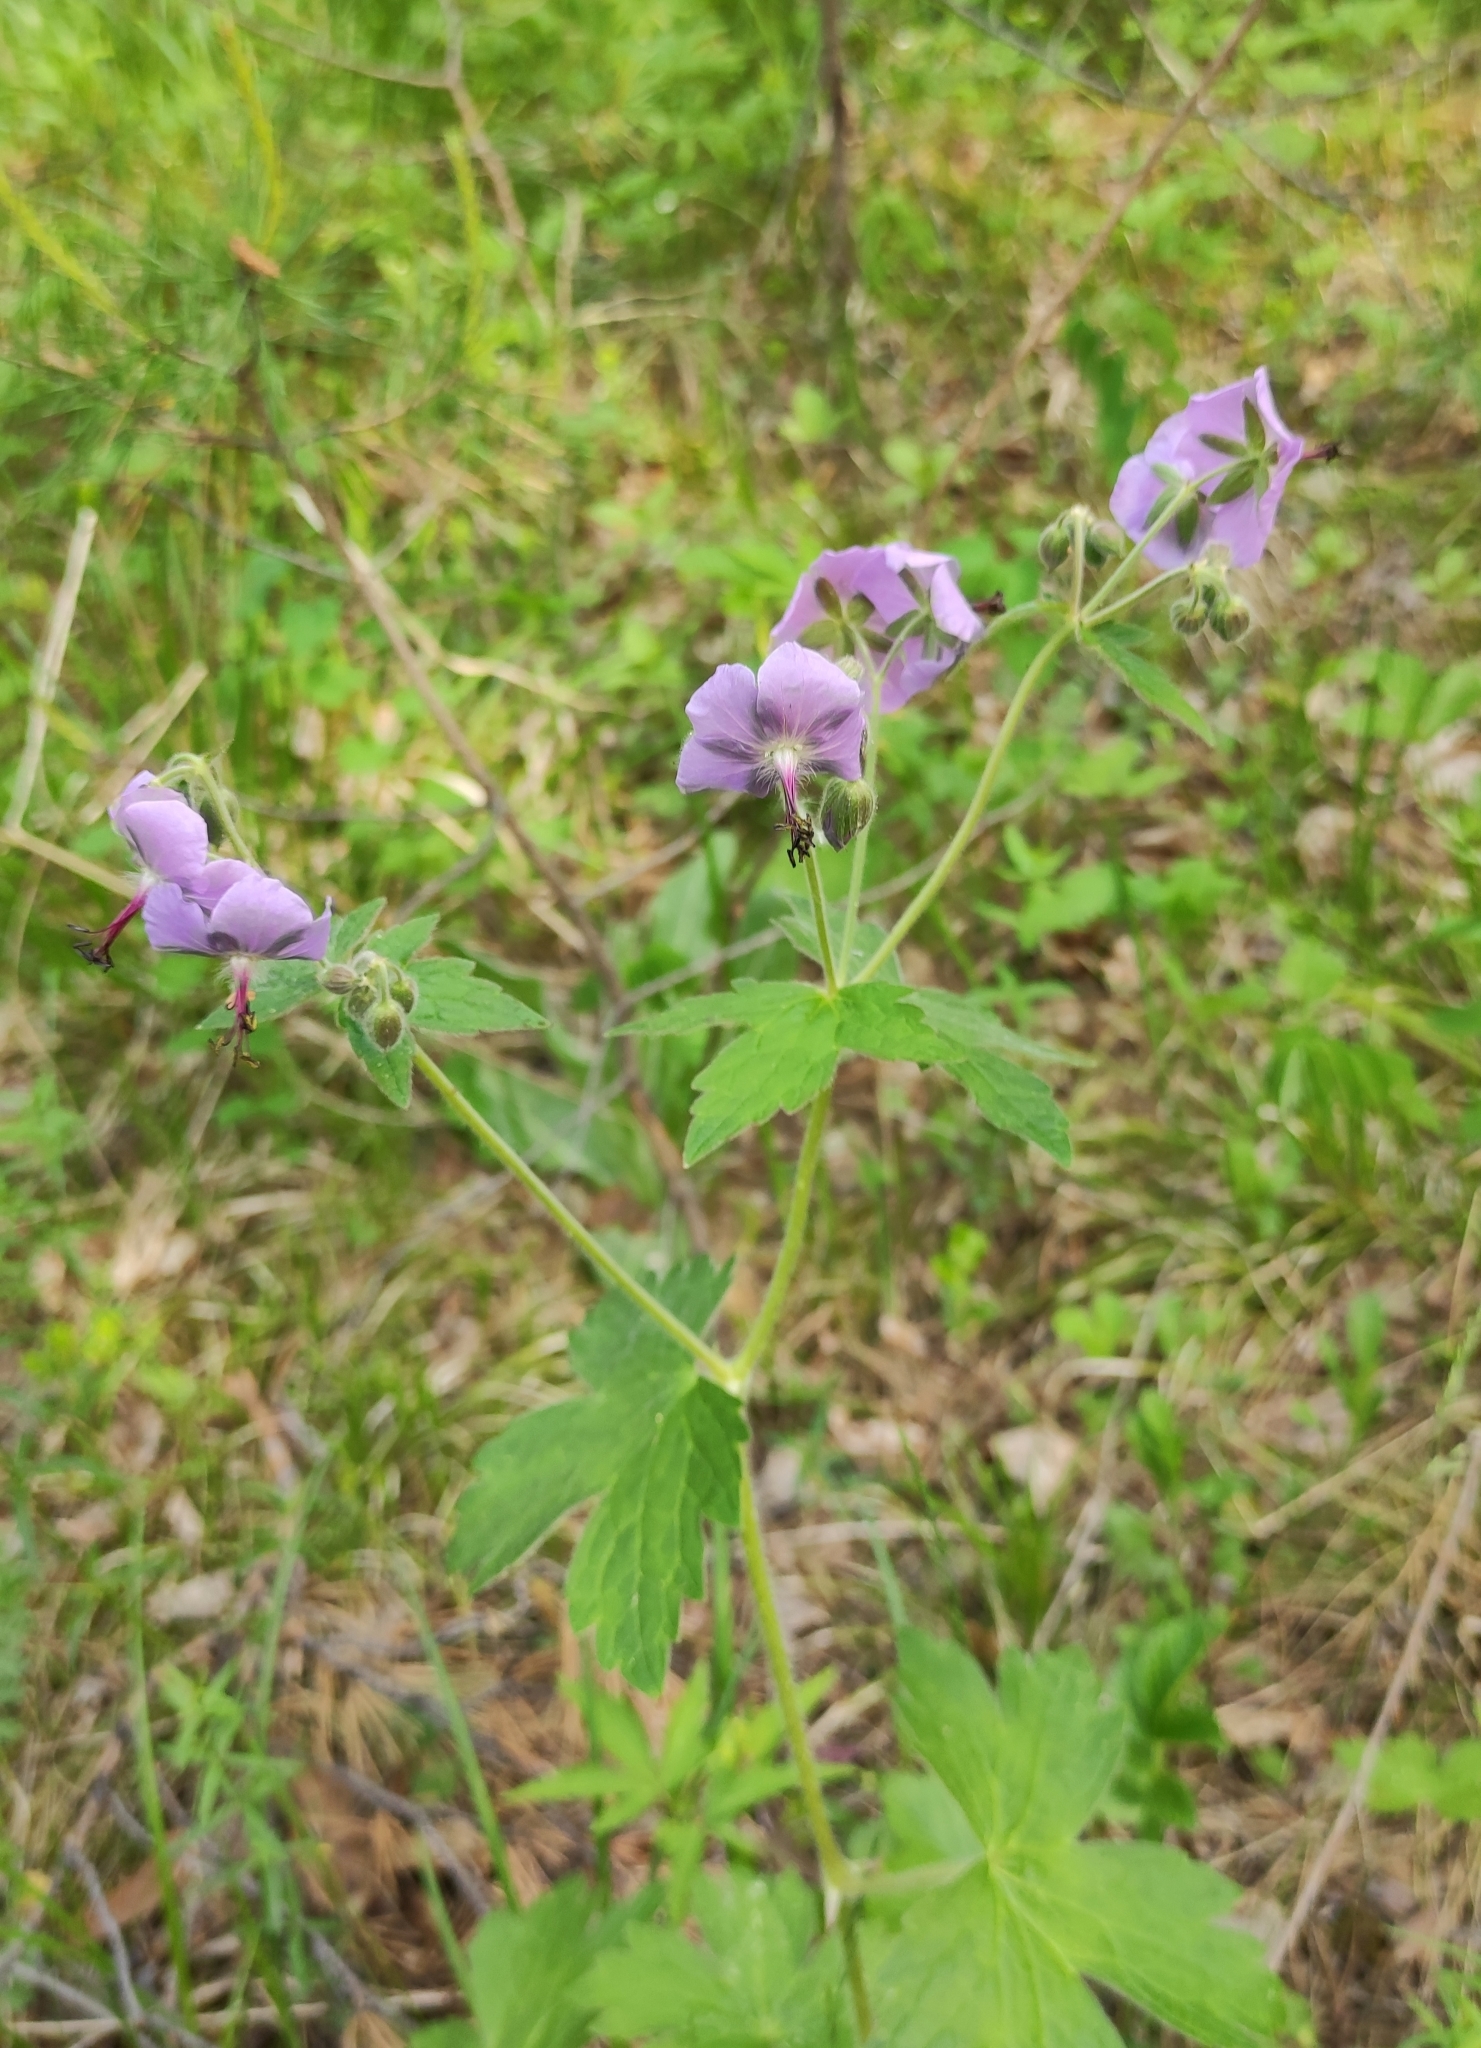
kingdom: Plantae
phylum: Tracheophyta
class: Magnoliopsida
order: Geraniales
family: Geraniaceae
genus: Geranium
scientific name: Geranium platyanthum
